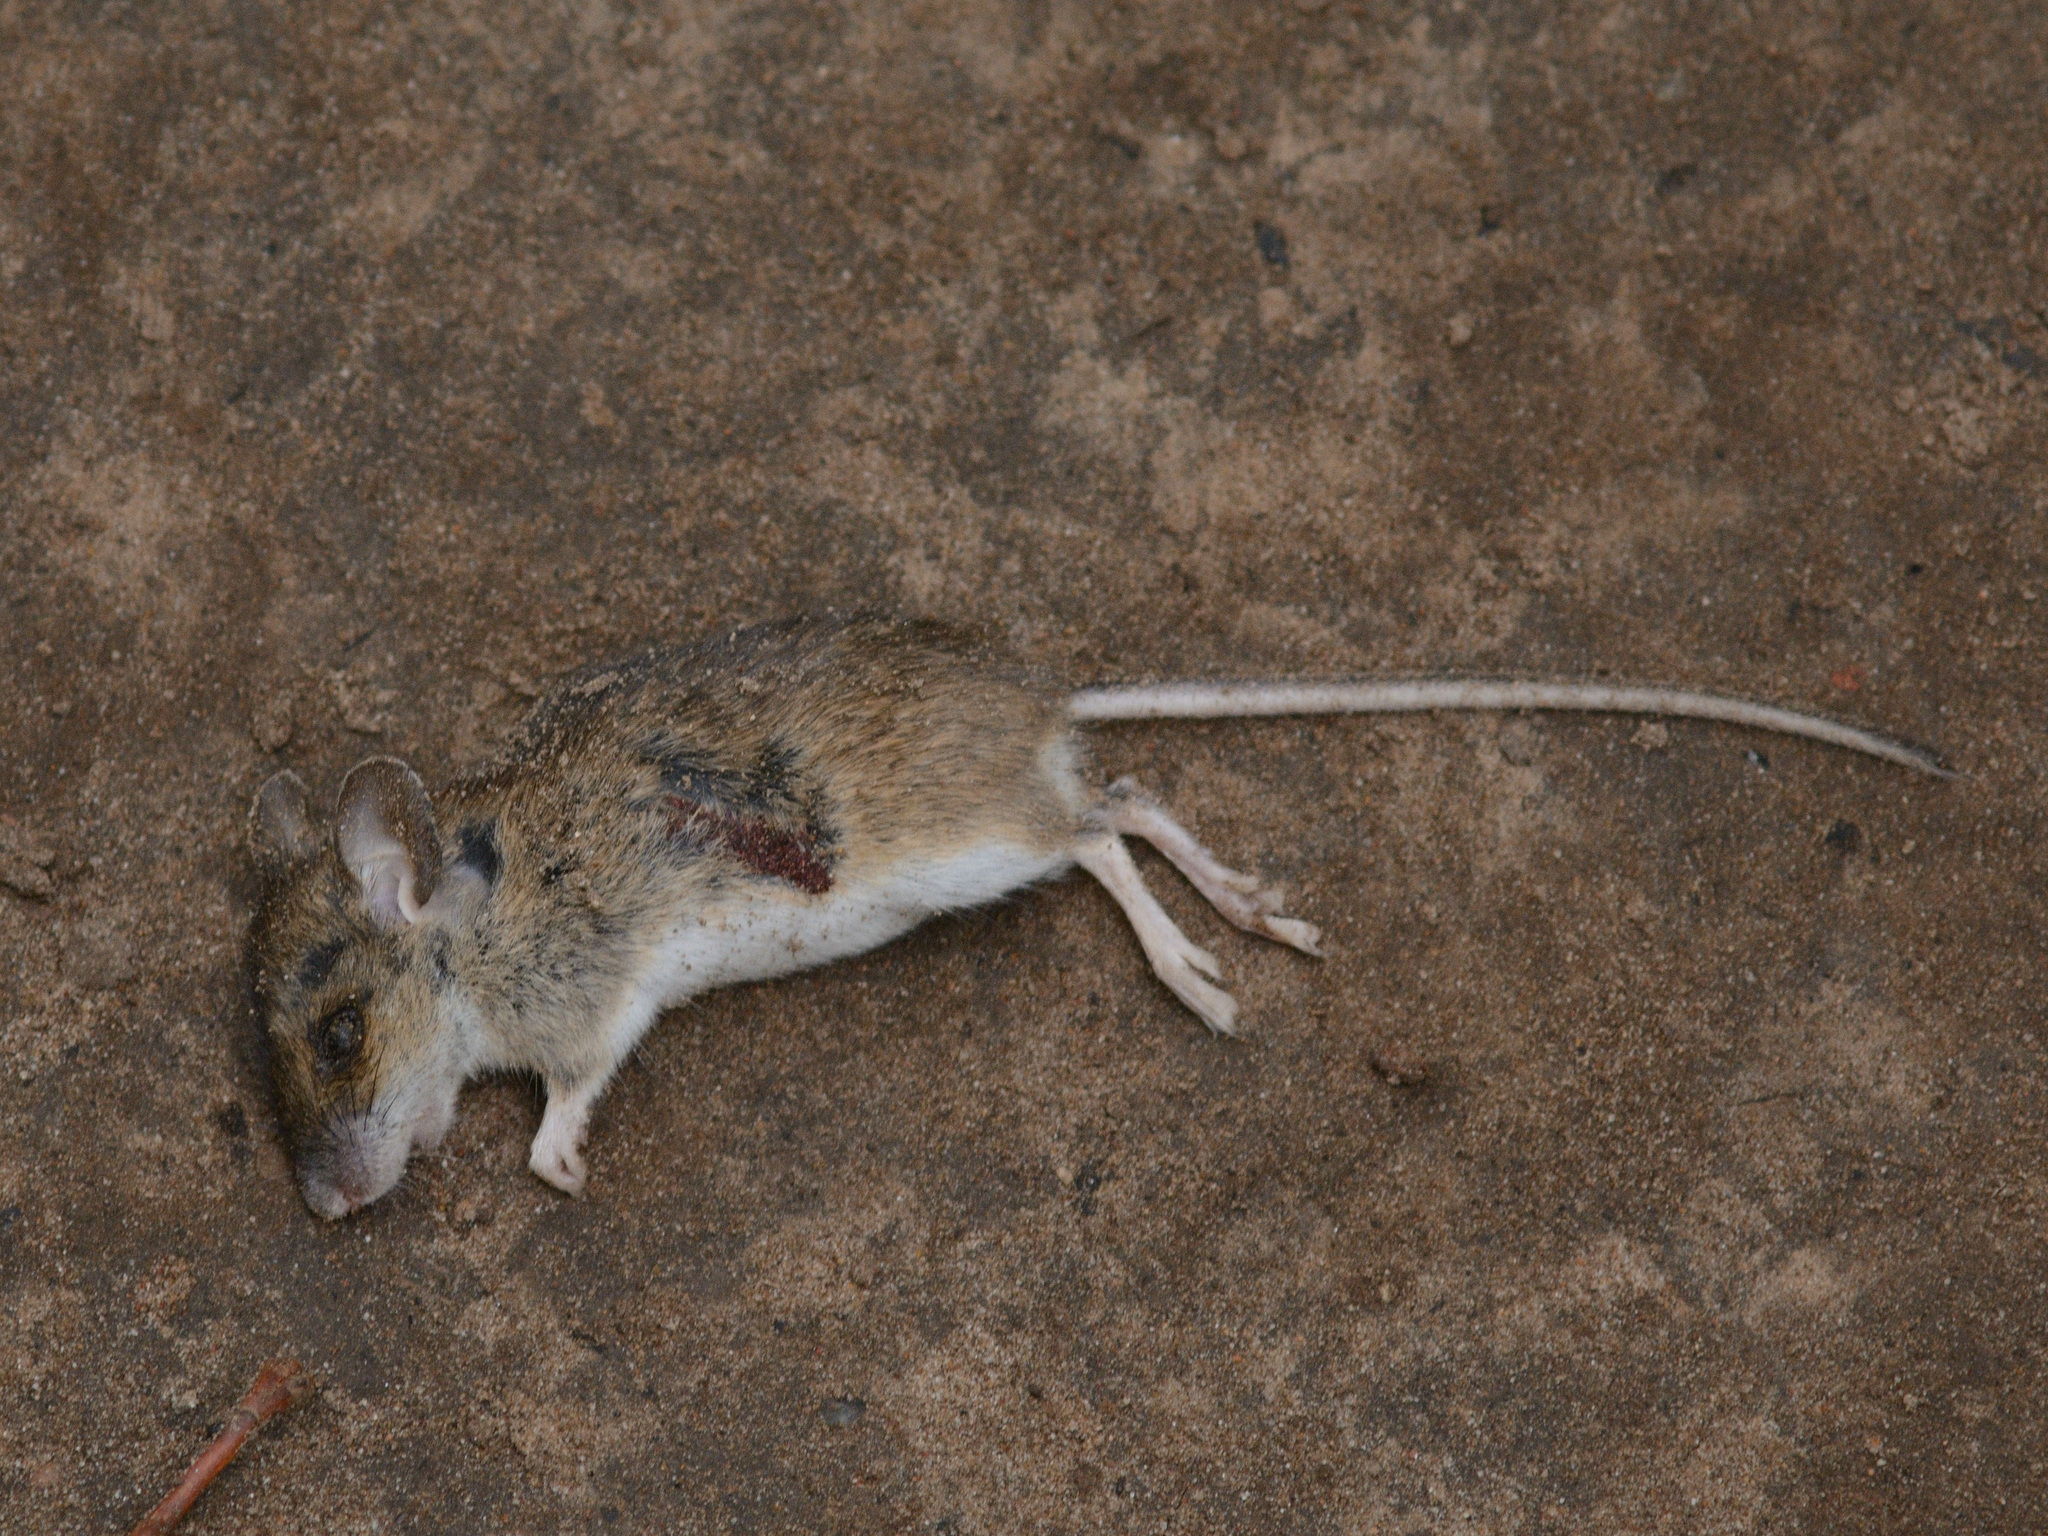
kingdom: Animalia
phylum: Chordata
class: Mammalia
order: Rodentia
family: Muridae
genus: Apodemus
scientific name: Apodemus uralensis
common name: Herb field mouse
